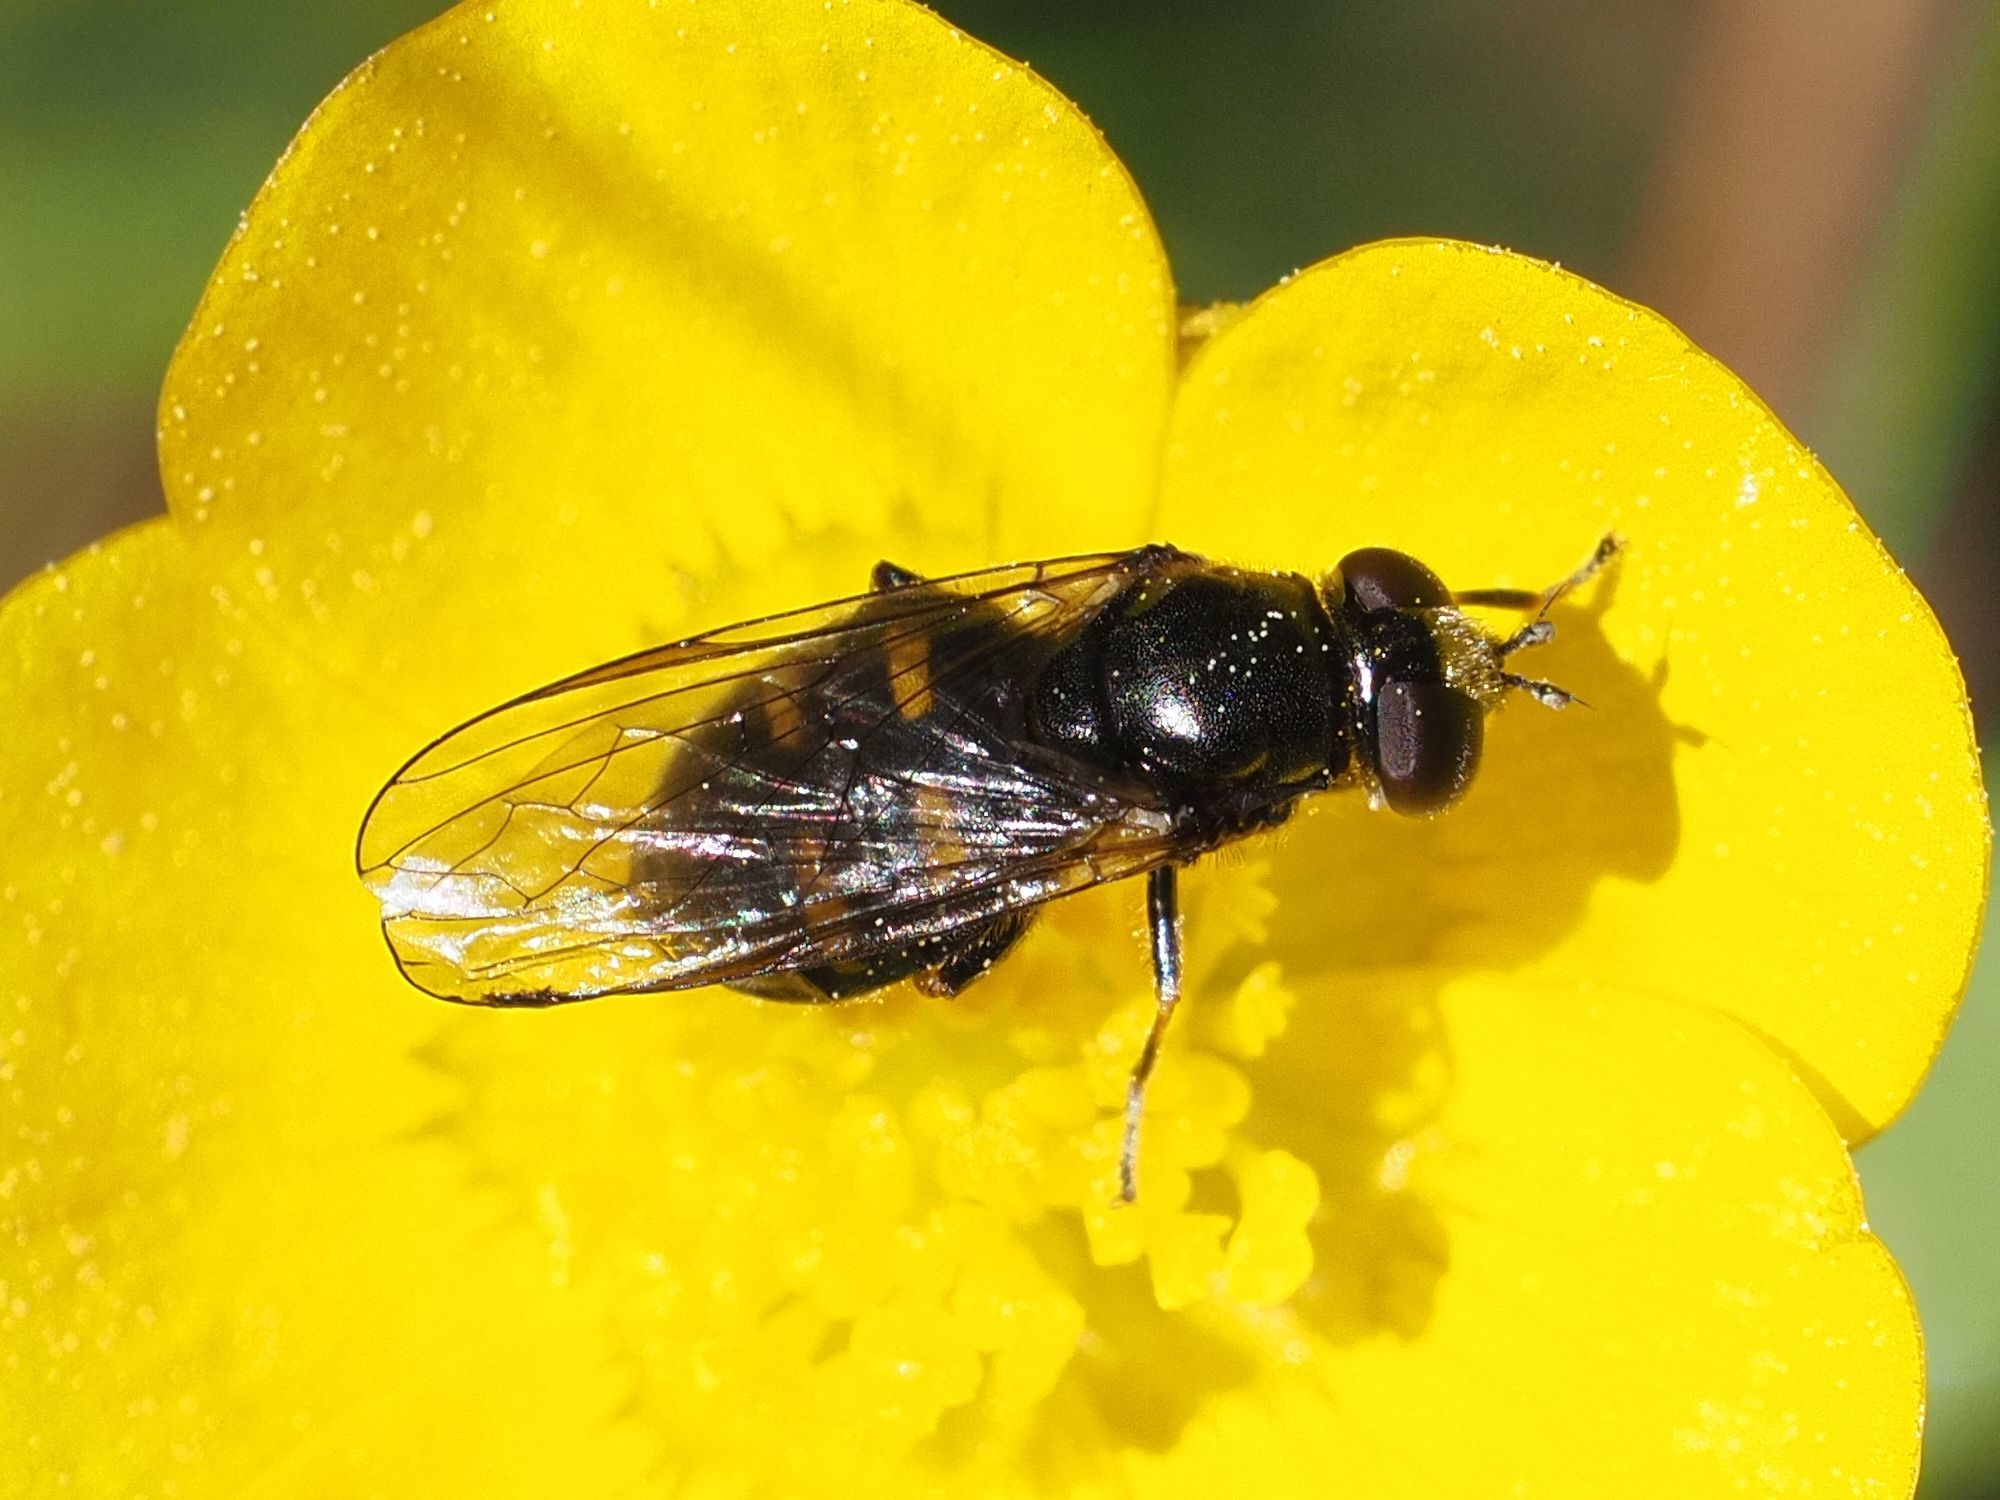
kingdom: Animalia
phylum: Arthropoda
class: Insecta
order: Diptera
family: Syrphidae
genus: Pipiza
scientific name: Pipiza quadrimaculata
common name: Four-spotted pipiza
